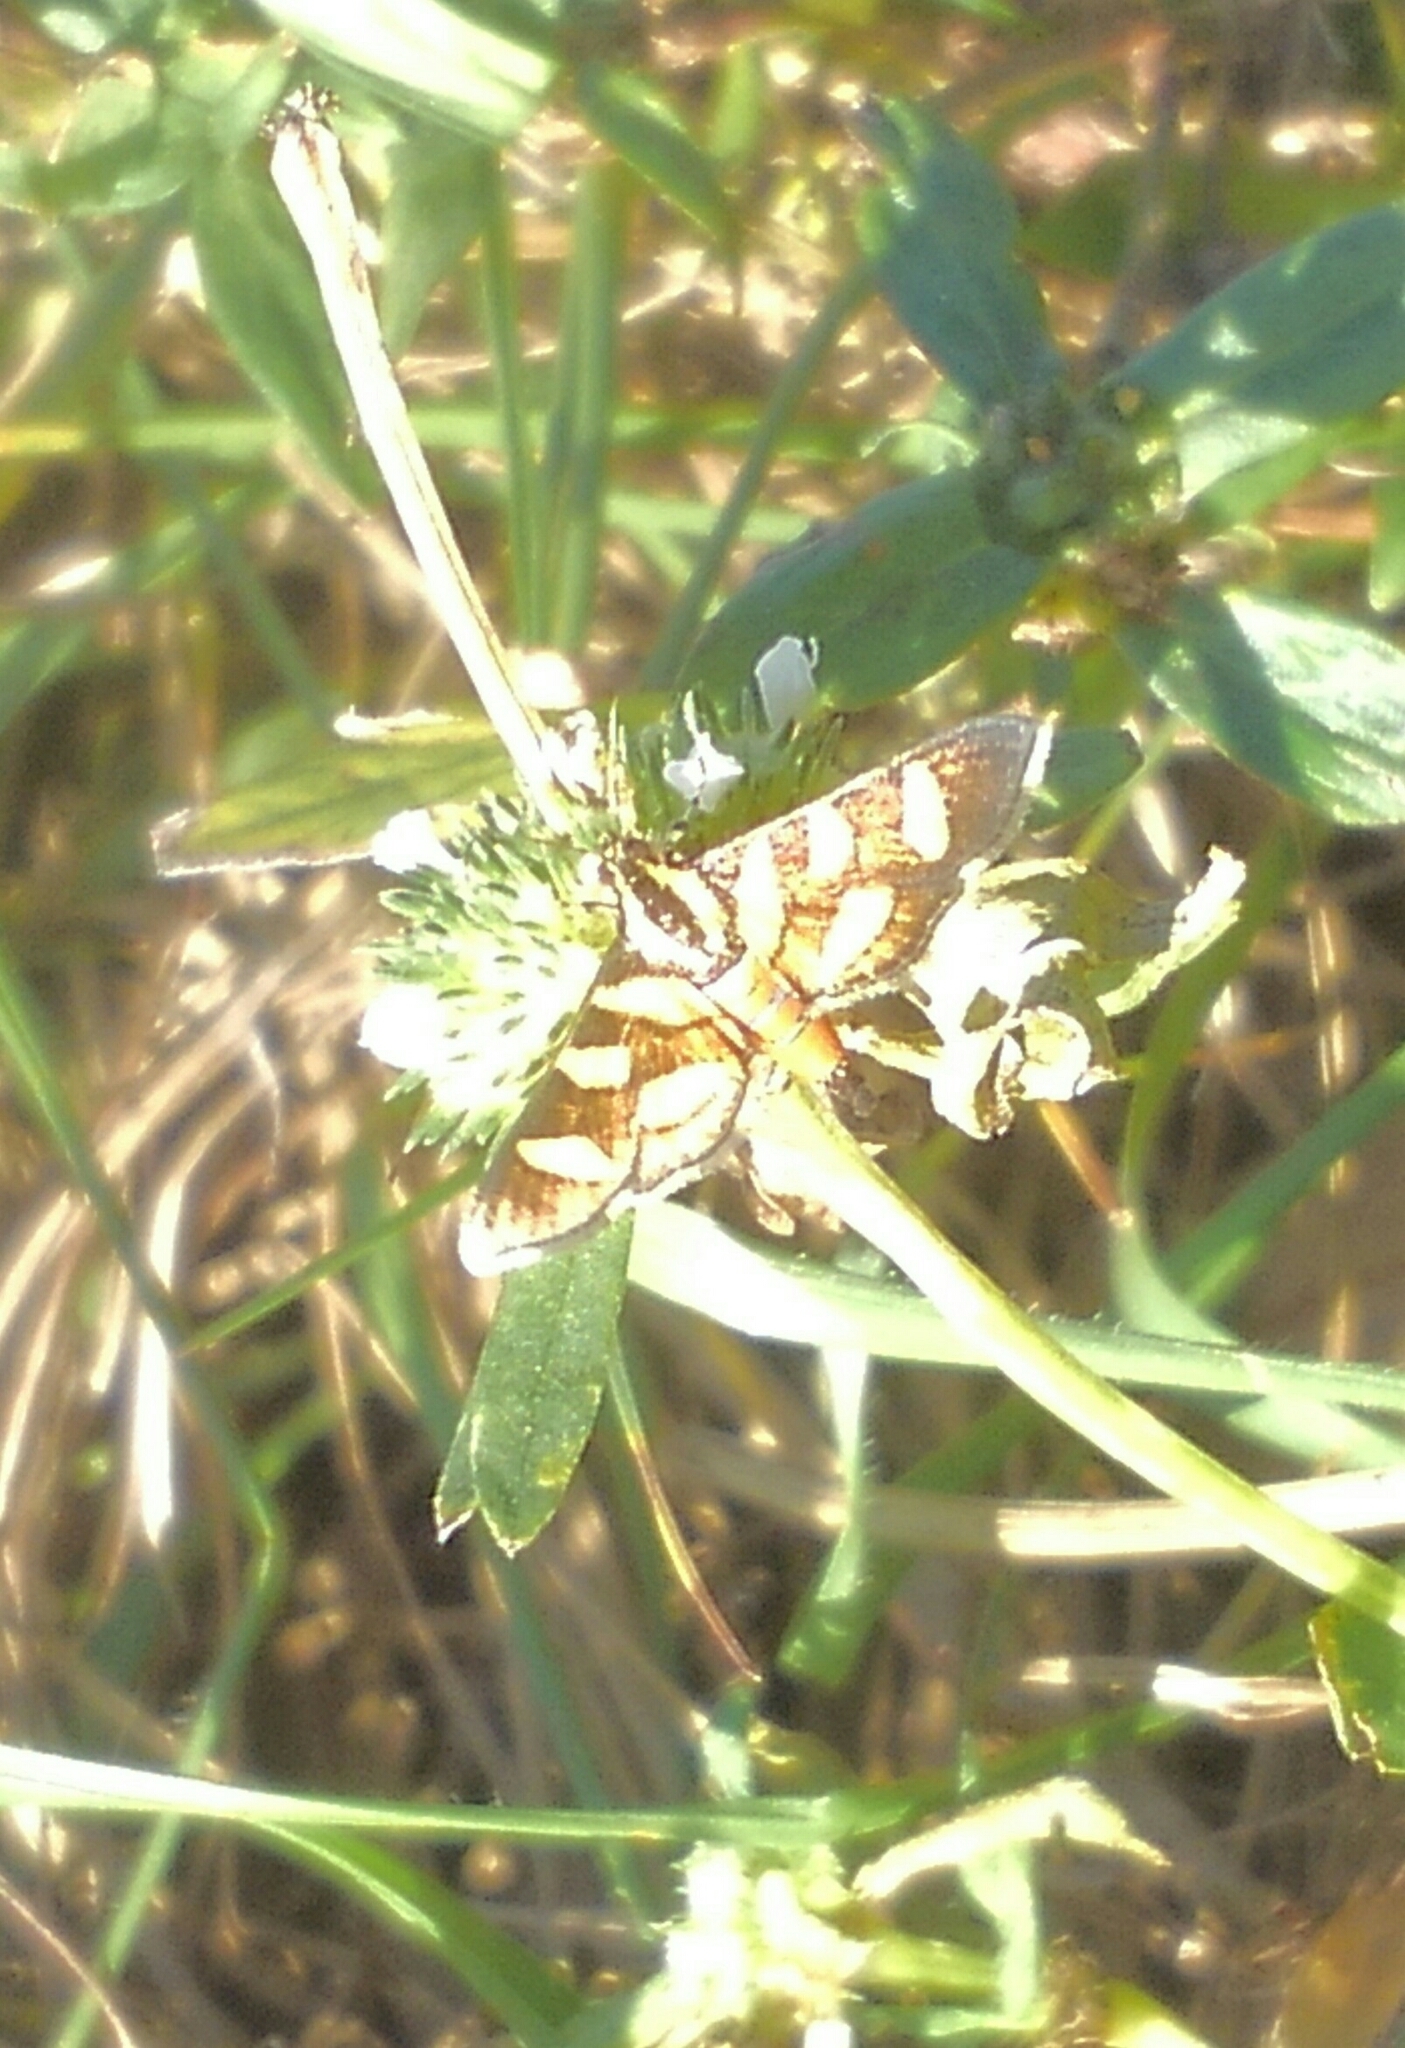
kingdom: Animalia
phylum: Arthropoda
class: Insecta
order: Lepidoptera
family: Crambidae
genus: Syngamia
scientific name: Syngamia florella
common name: Orange-spotted flower moth
